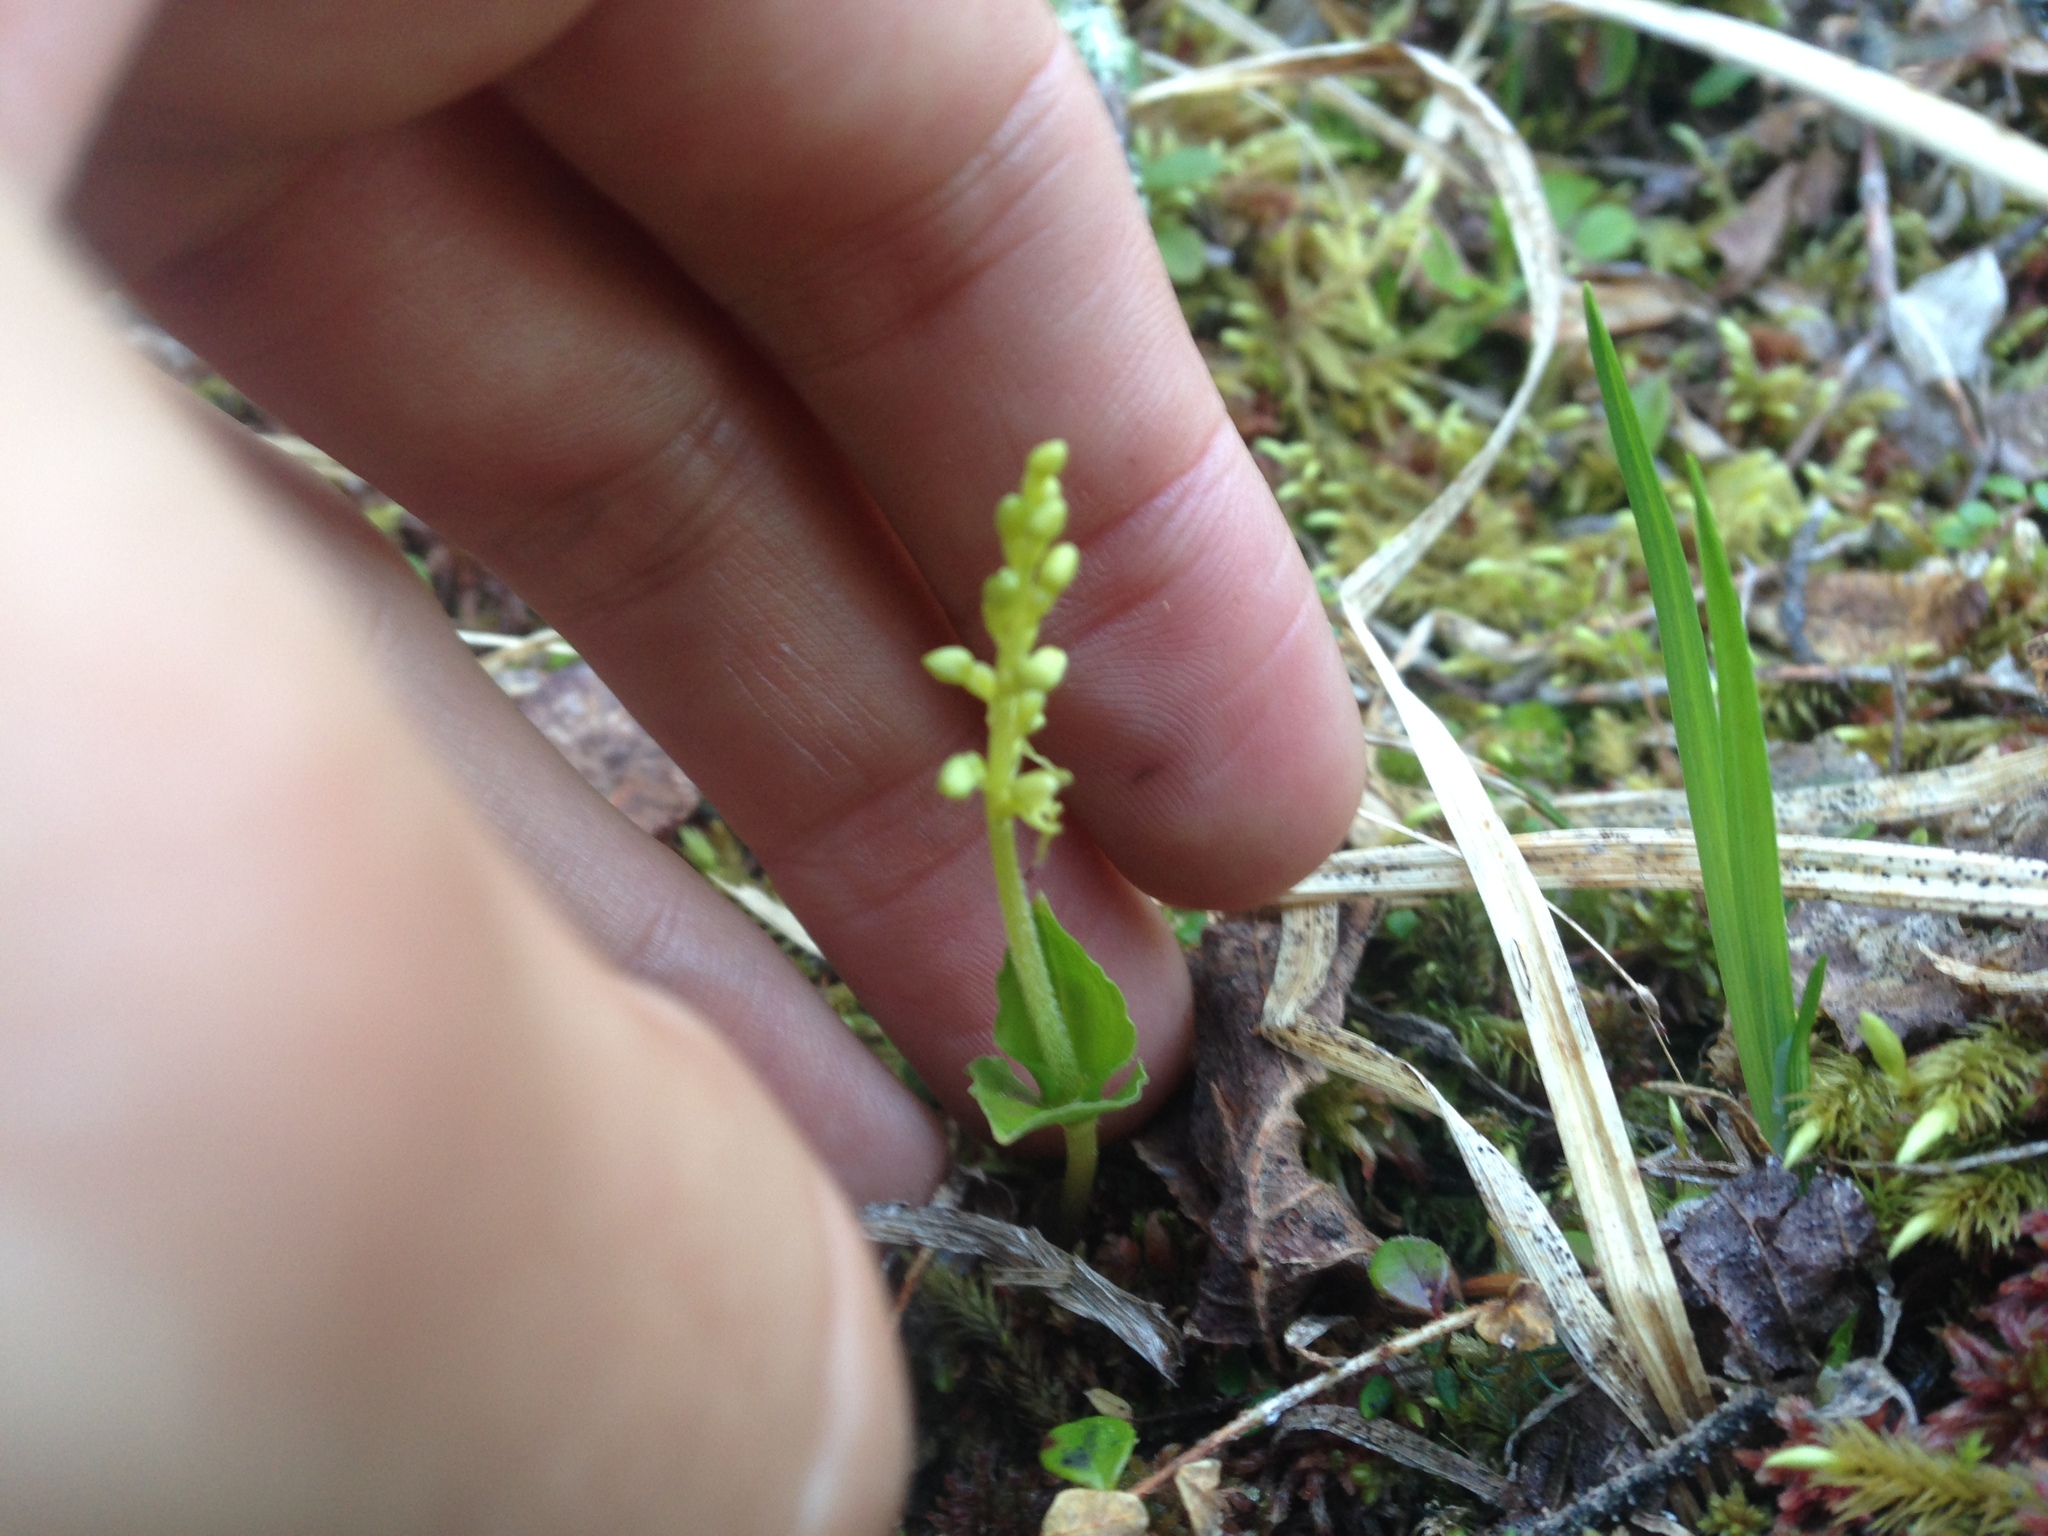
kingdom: Plantae
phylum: Tracheophyta
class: Liliopsida
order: Asparagales
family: Orchidaceae
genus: Neottia
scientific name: Neottia cordata
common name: Lesser twayblade
